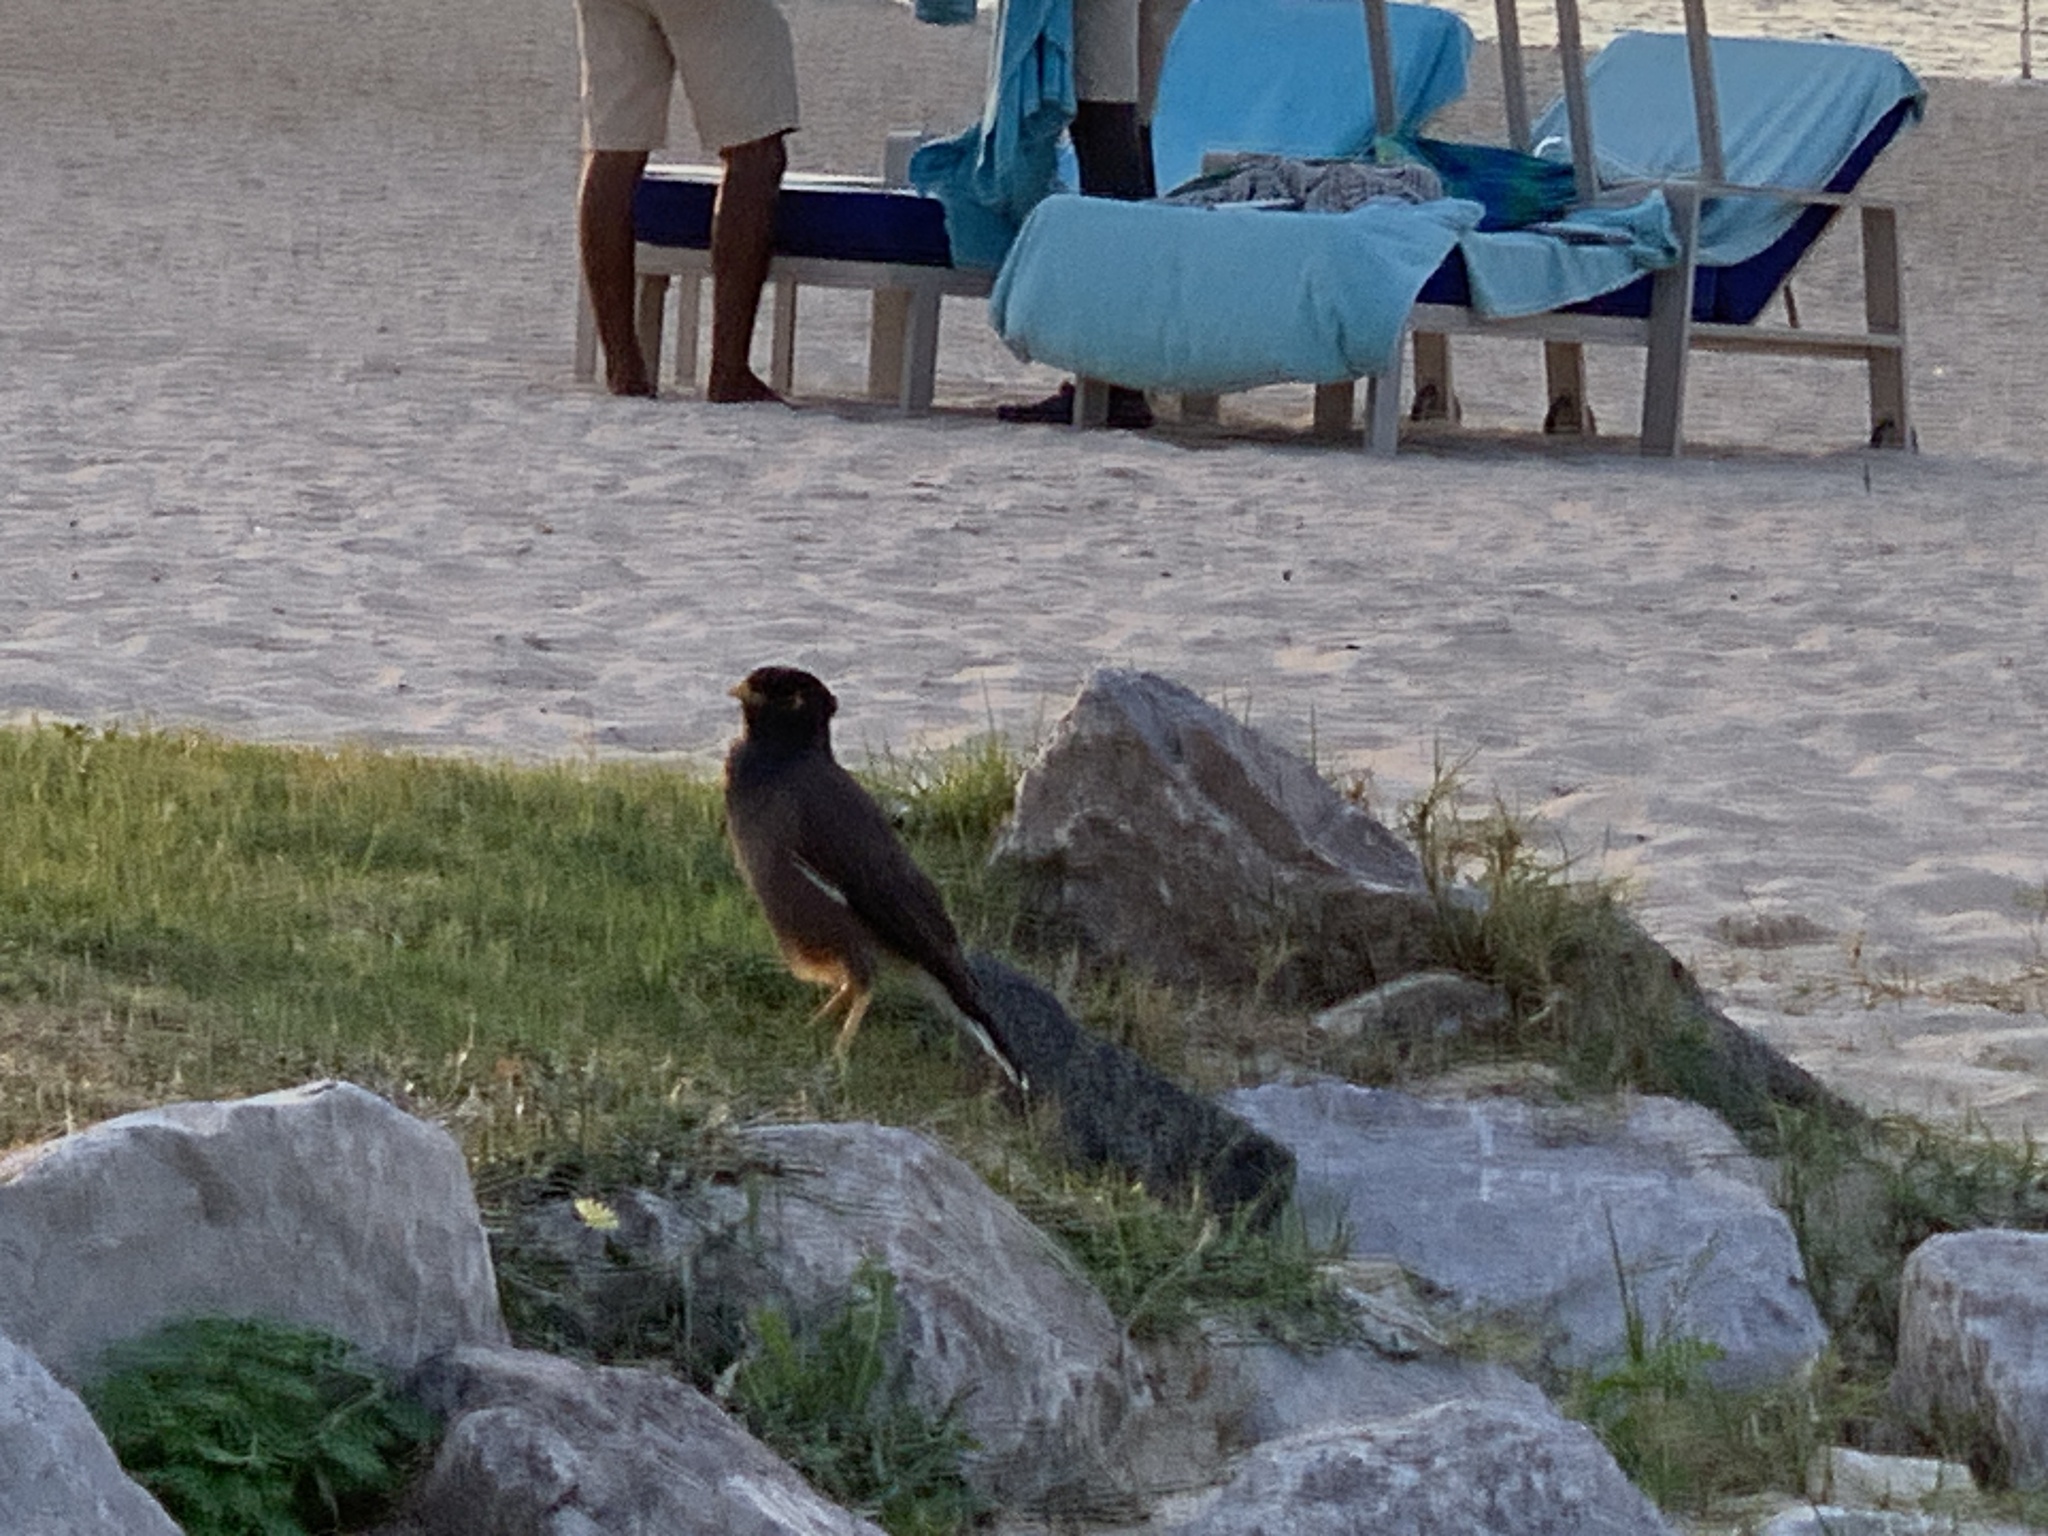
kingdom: Animalia
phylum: Chordata
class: Aves
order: Passeriformes
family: Sturnidae
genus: Acridotheres
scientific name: Acridotheres tristis
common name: Common myna
